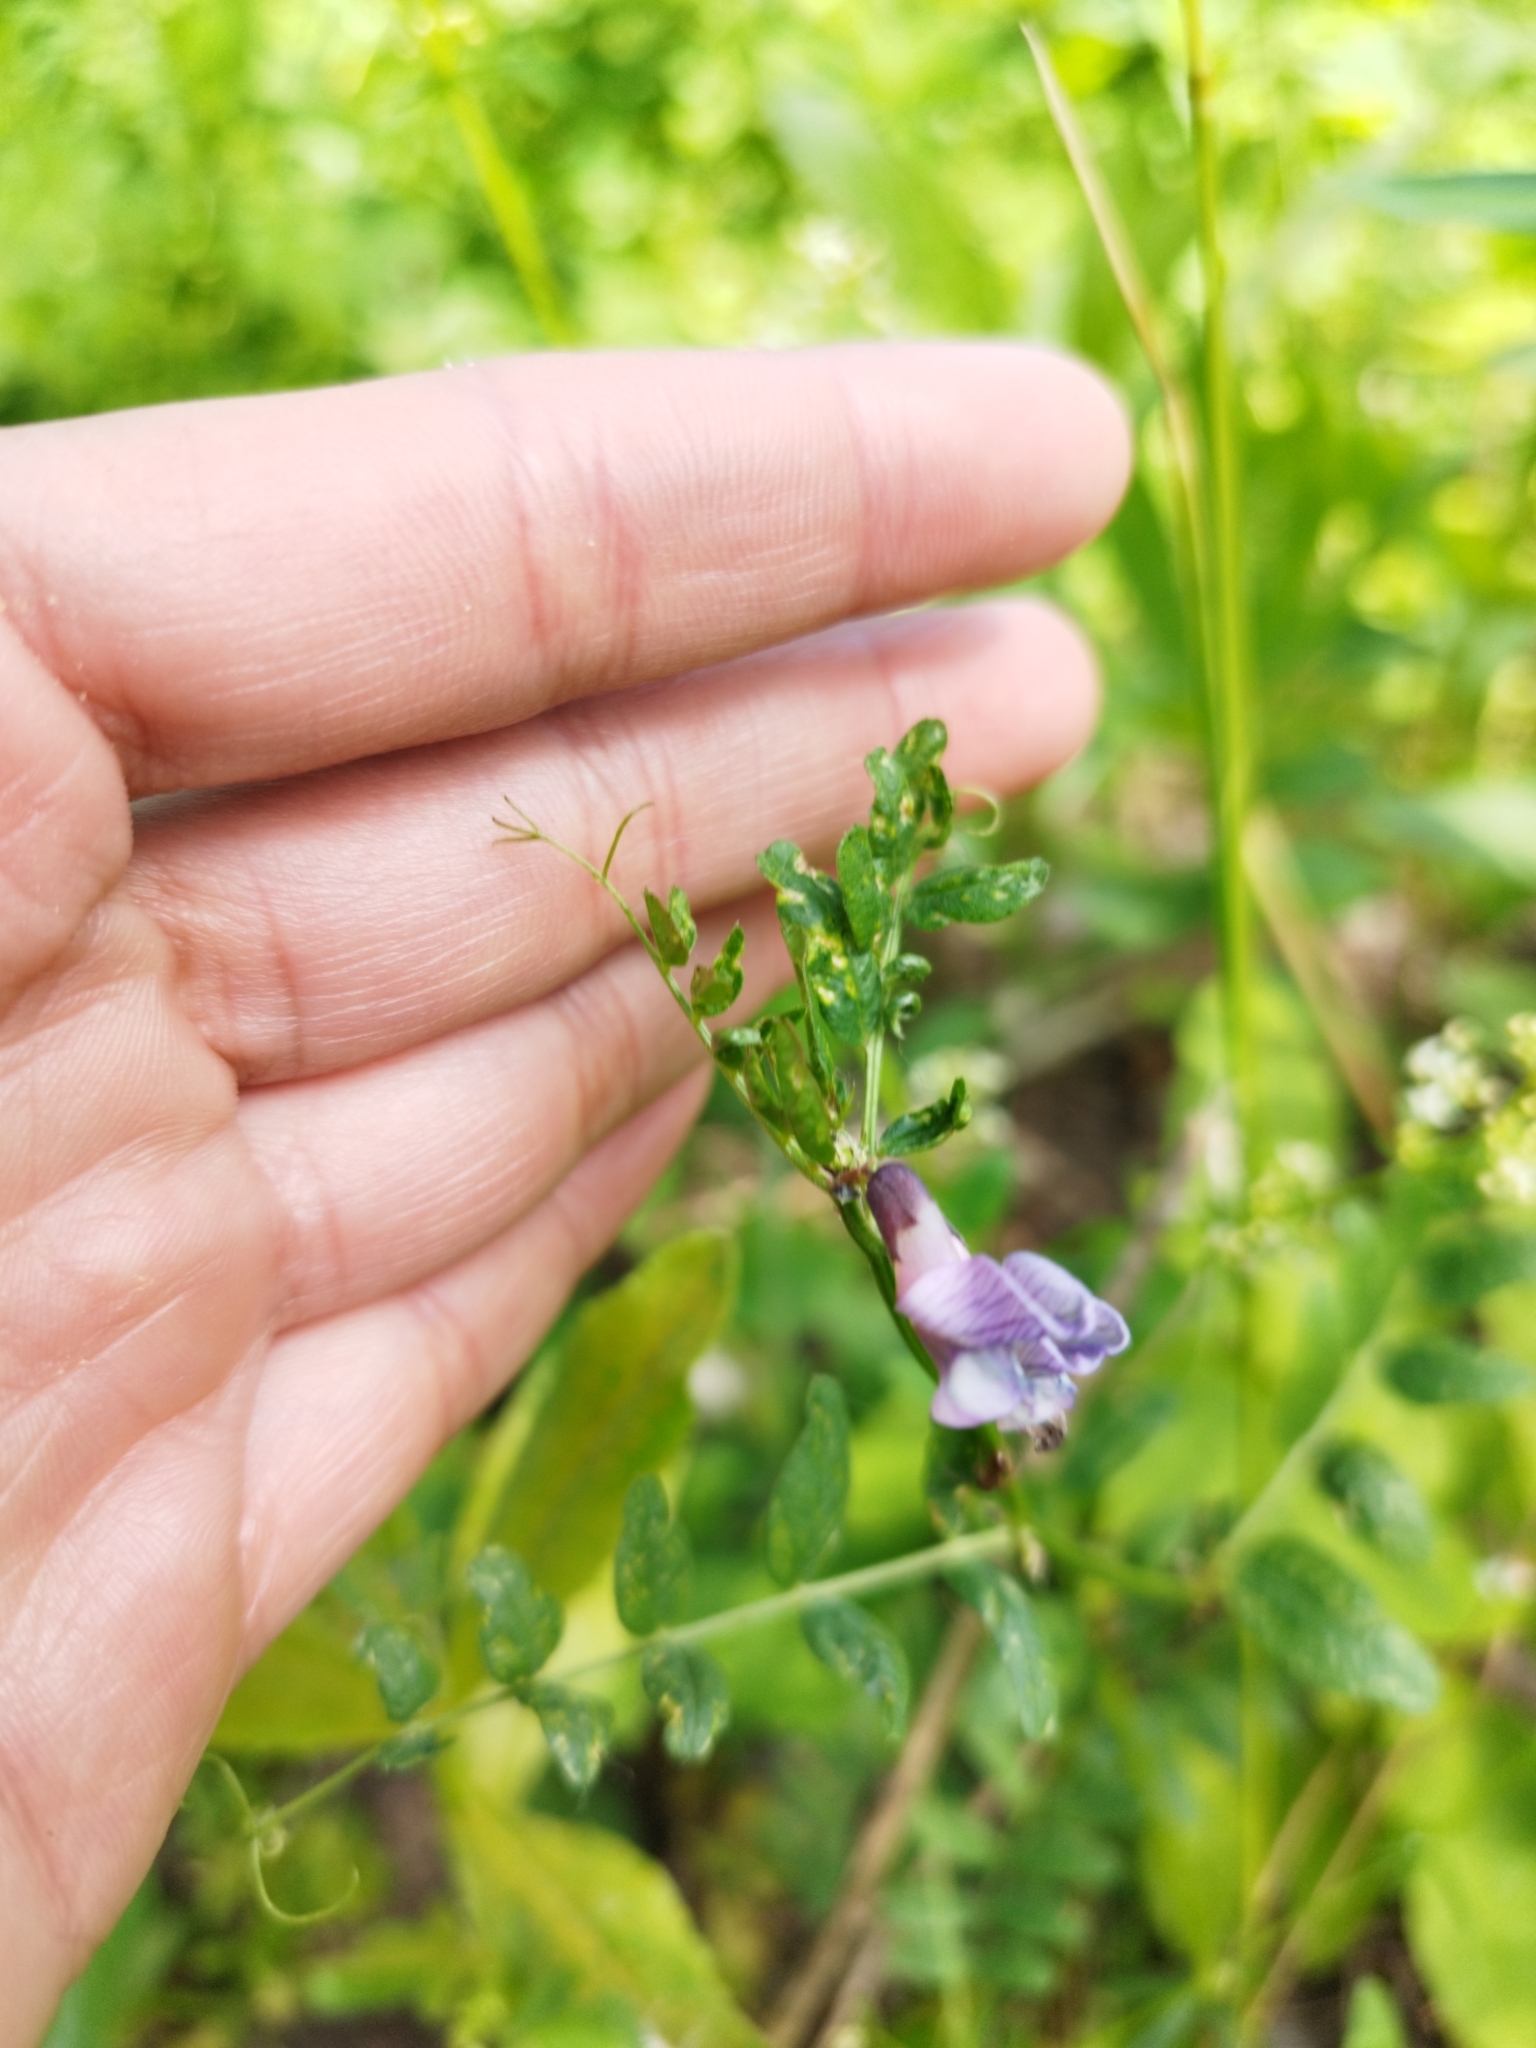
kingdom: Plantae
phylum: Tracheophyta
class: Magnoliopsida
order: Fabales
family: Fabaceae
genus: Vicia
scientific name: Vicia sepium
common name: Bush vetch
